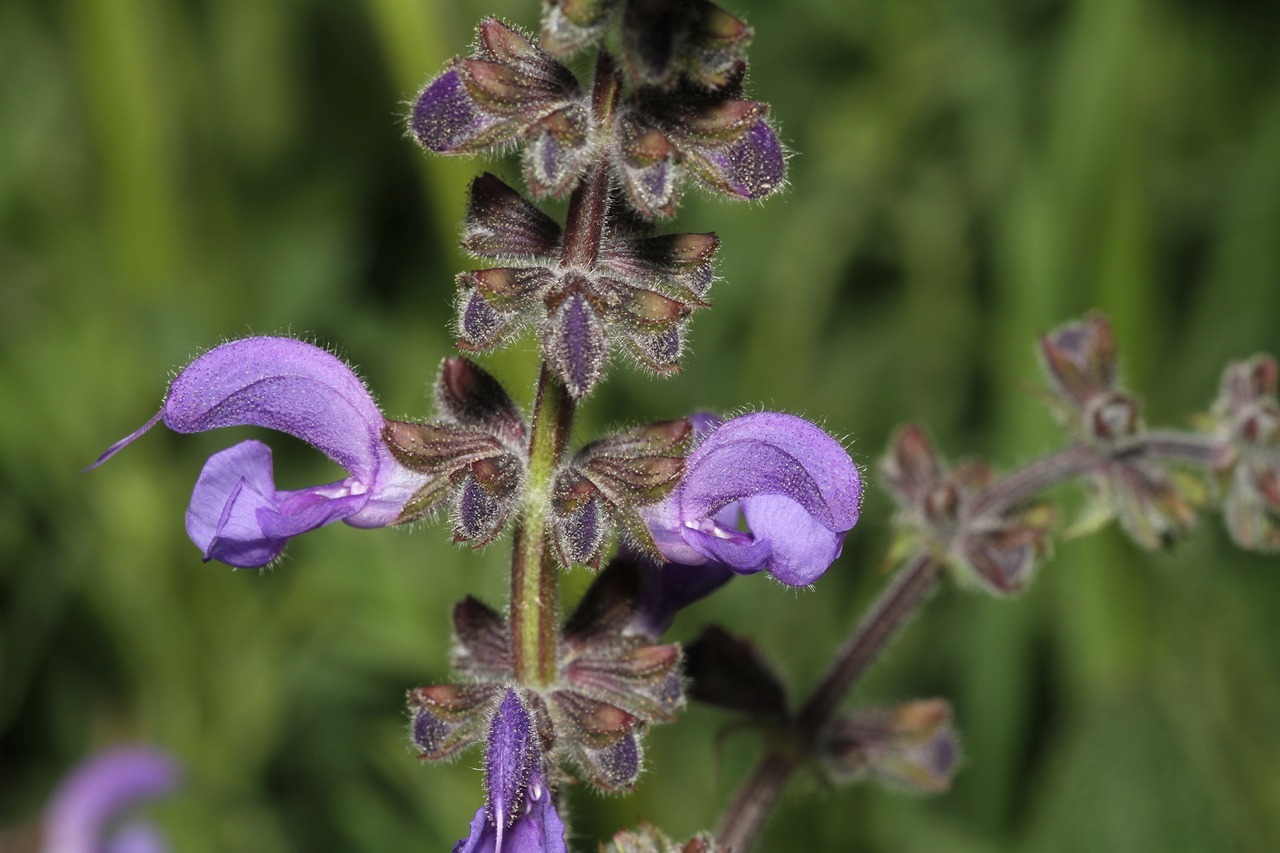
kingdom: Plantae
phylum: Tracheophyta
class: Magnoliopsida
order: Lamiales
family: Lamiaceae
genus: Salvia
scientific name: Salvia pratensis
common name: Meadow sage
